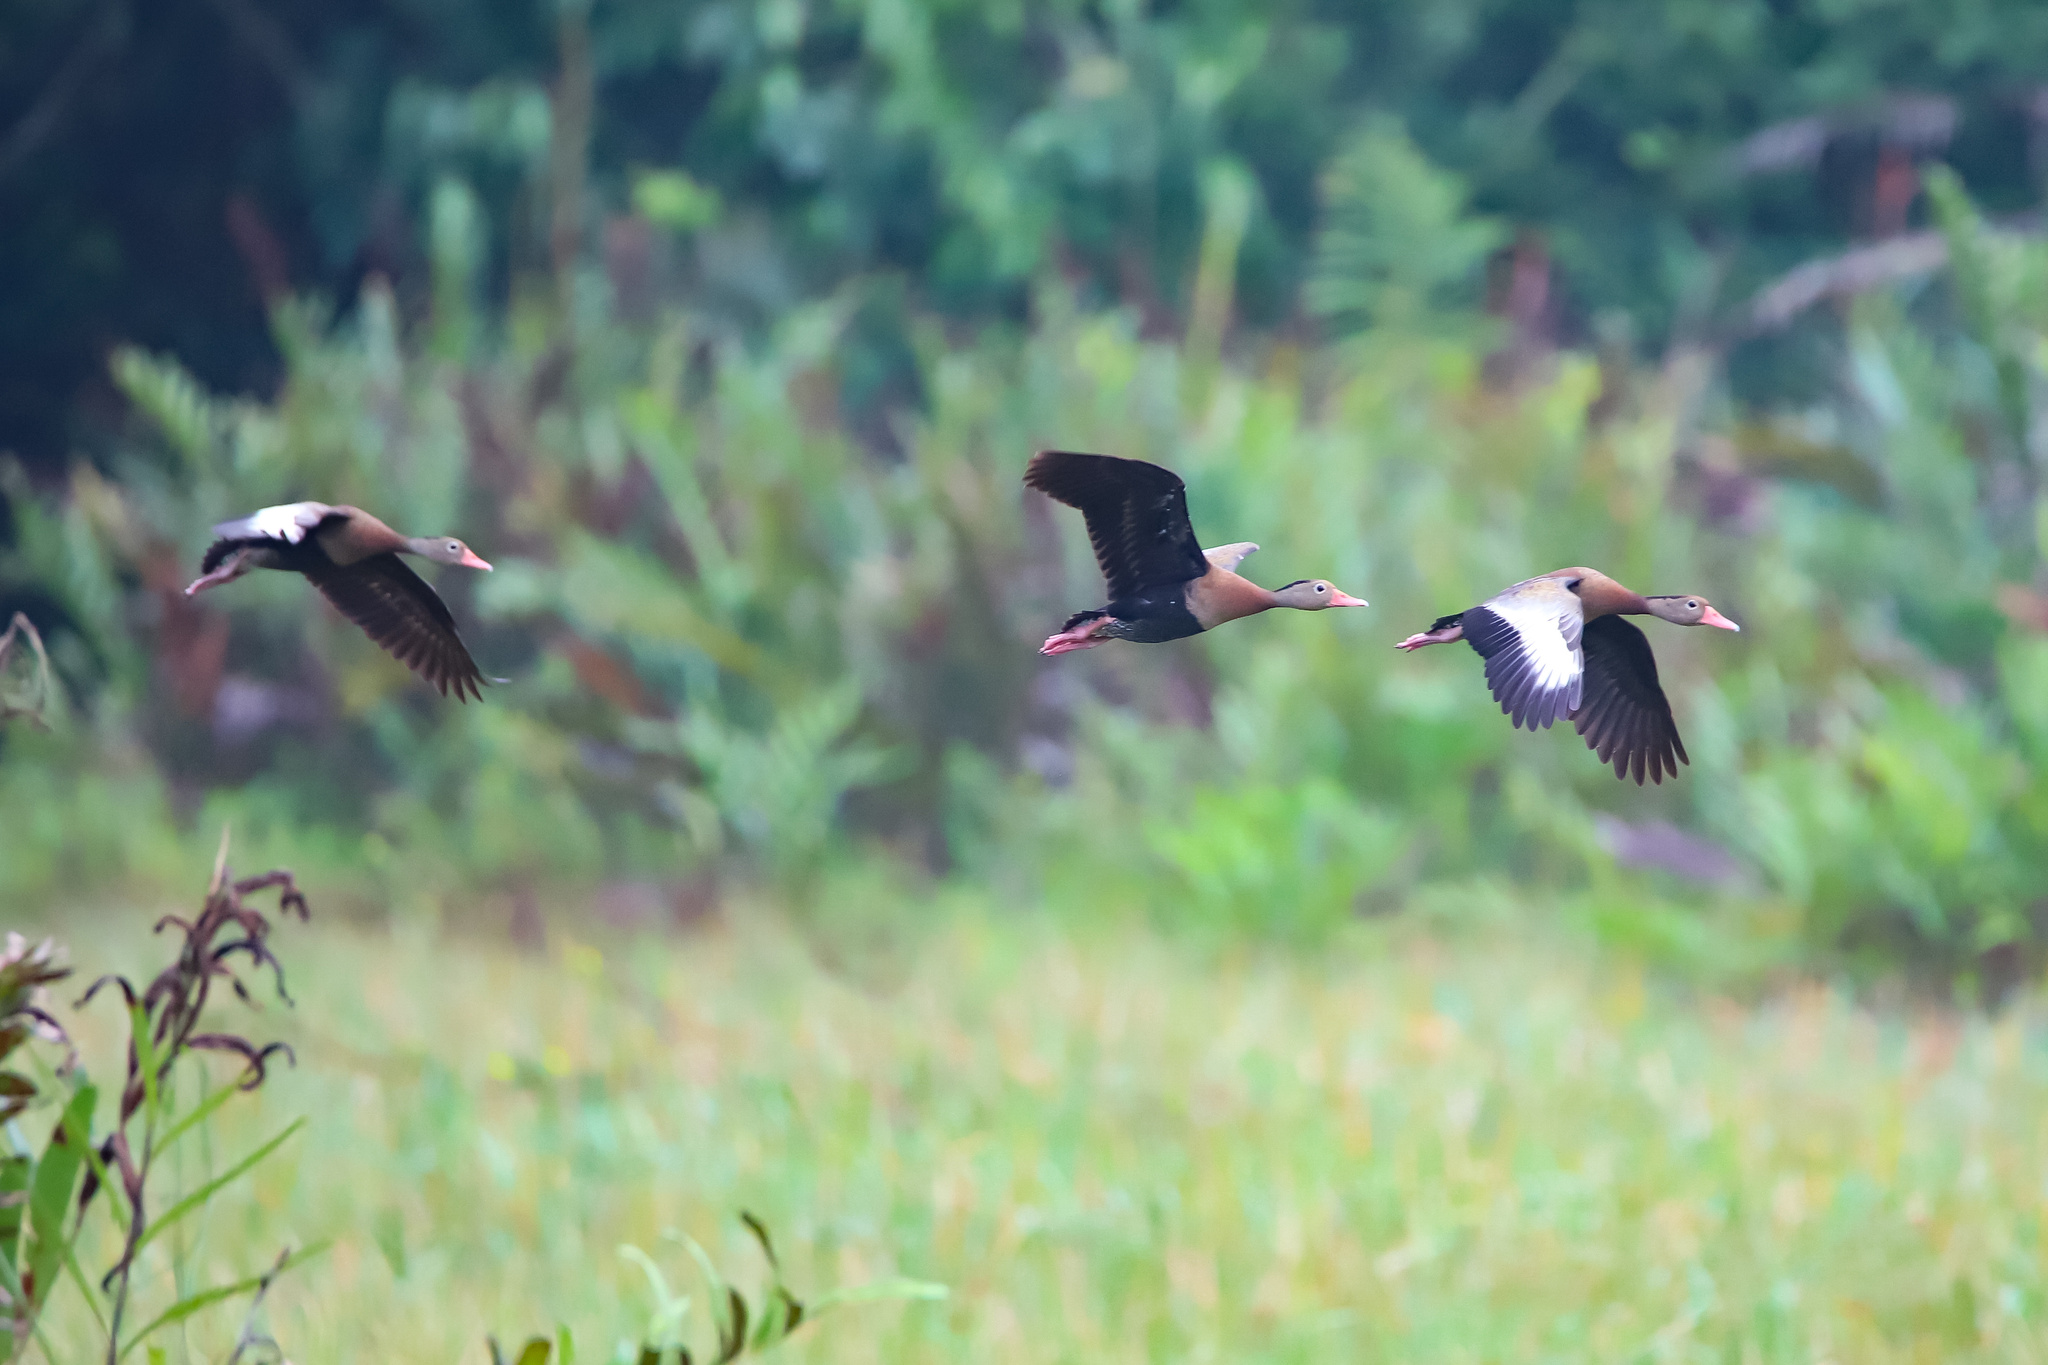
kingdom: Animalia
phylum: Chordata
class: Aves
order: Anseriformes
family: Anatidae
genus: Dendrocygna
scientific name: Dendrocygna autumnalis
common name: Black-bellied whistling duck
